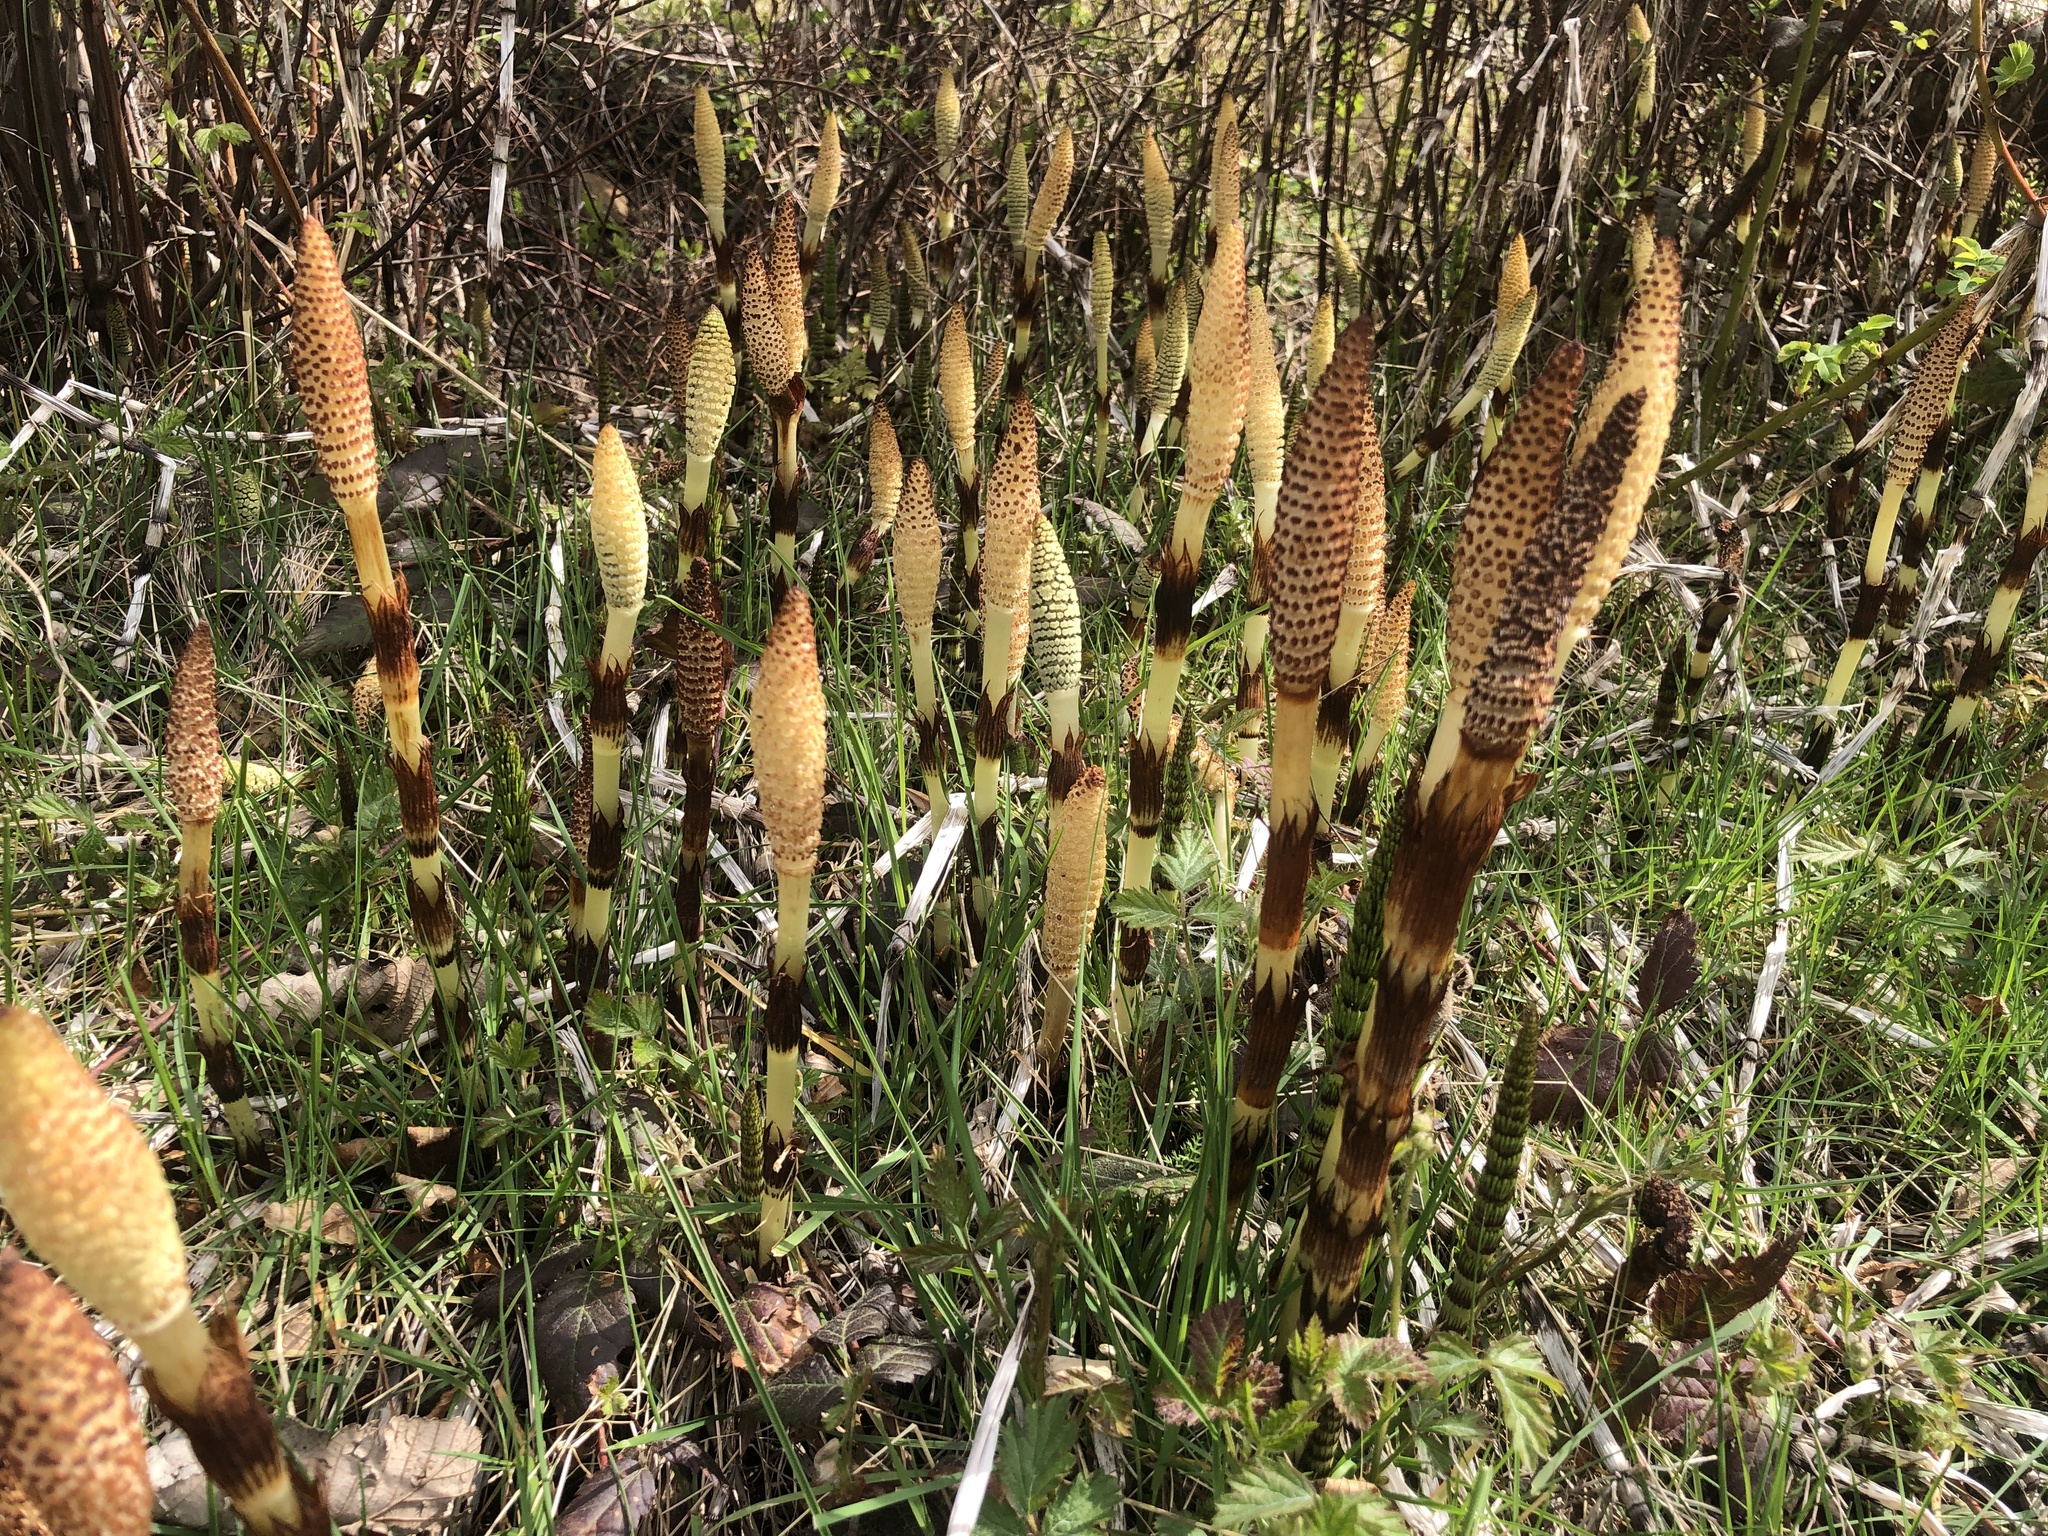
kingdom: Plantae
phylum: Tracheophyta
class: Polypodiopsida
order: Equisetales
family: Equisetaceae
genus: Equisetum
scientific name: Equisetum telmateia
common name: Great horsetail
